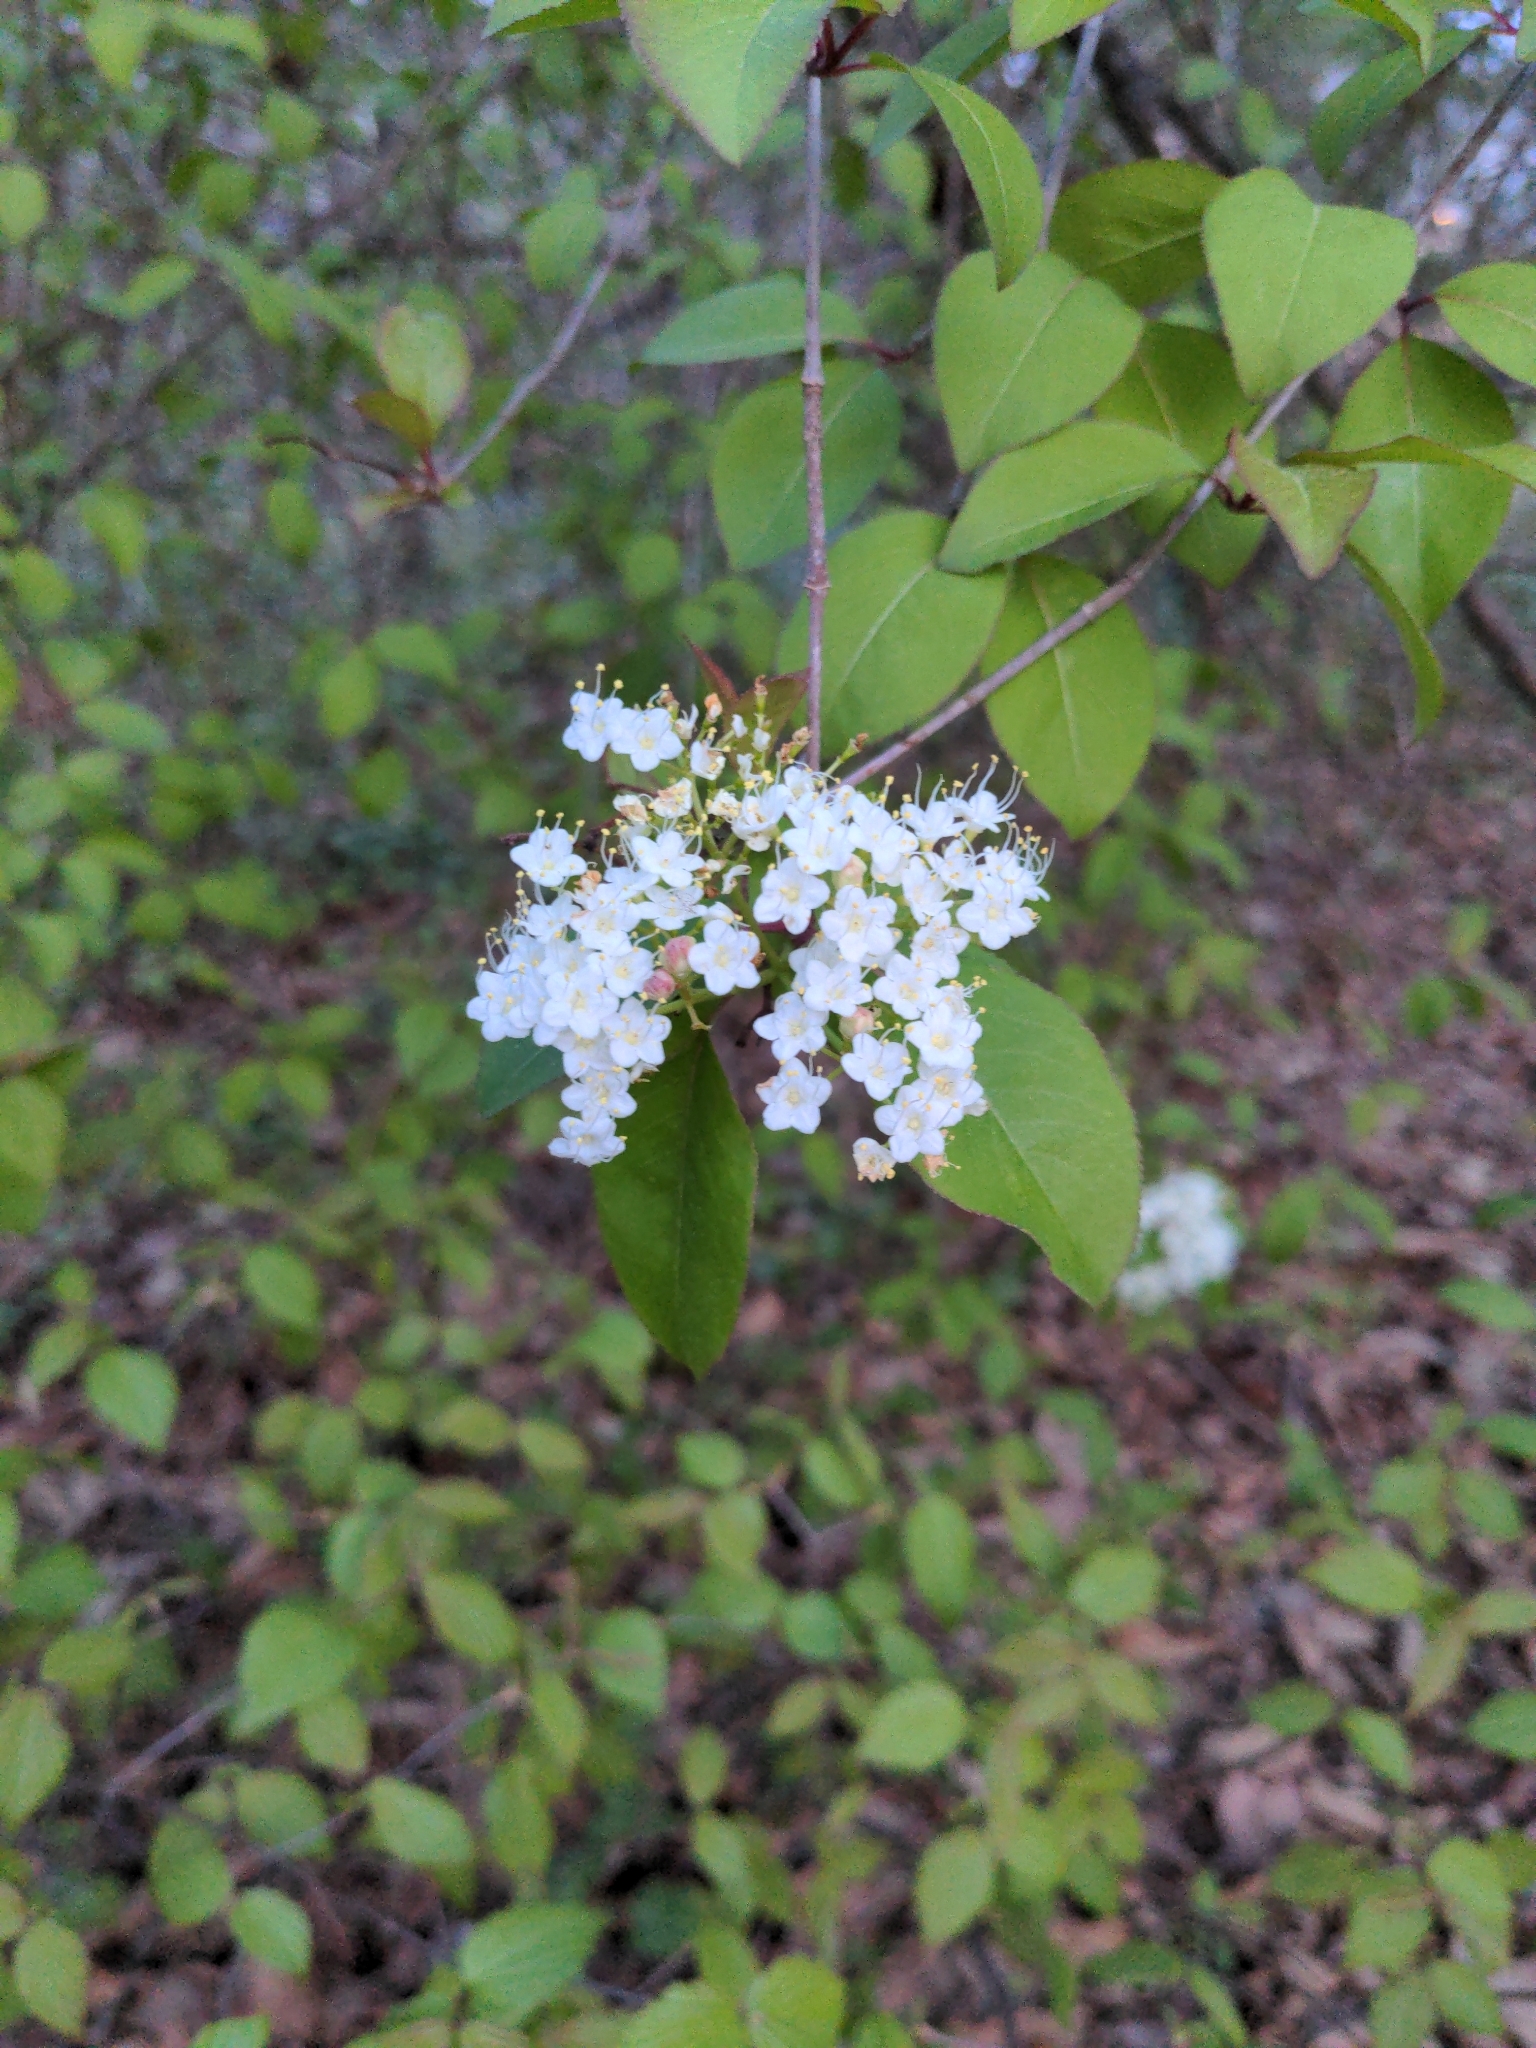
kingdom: Plantae
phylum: Tracheophyta
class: Magnoliopsida
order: Dipsacales
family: Viburnaceae
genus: Viburnum
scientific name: Viburnum prunifolium
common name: Black haw
